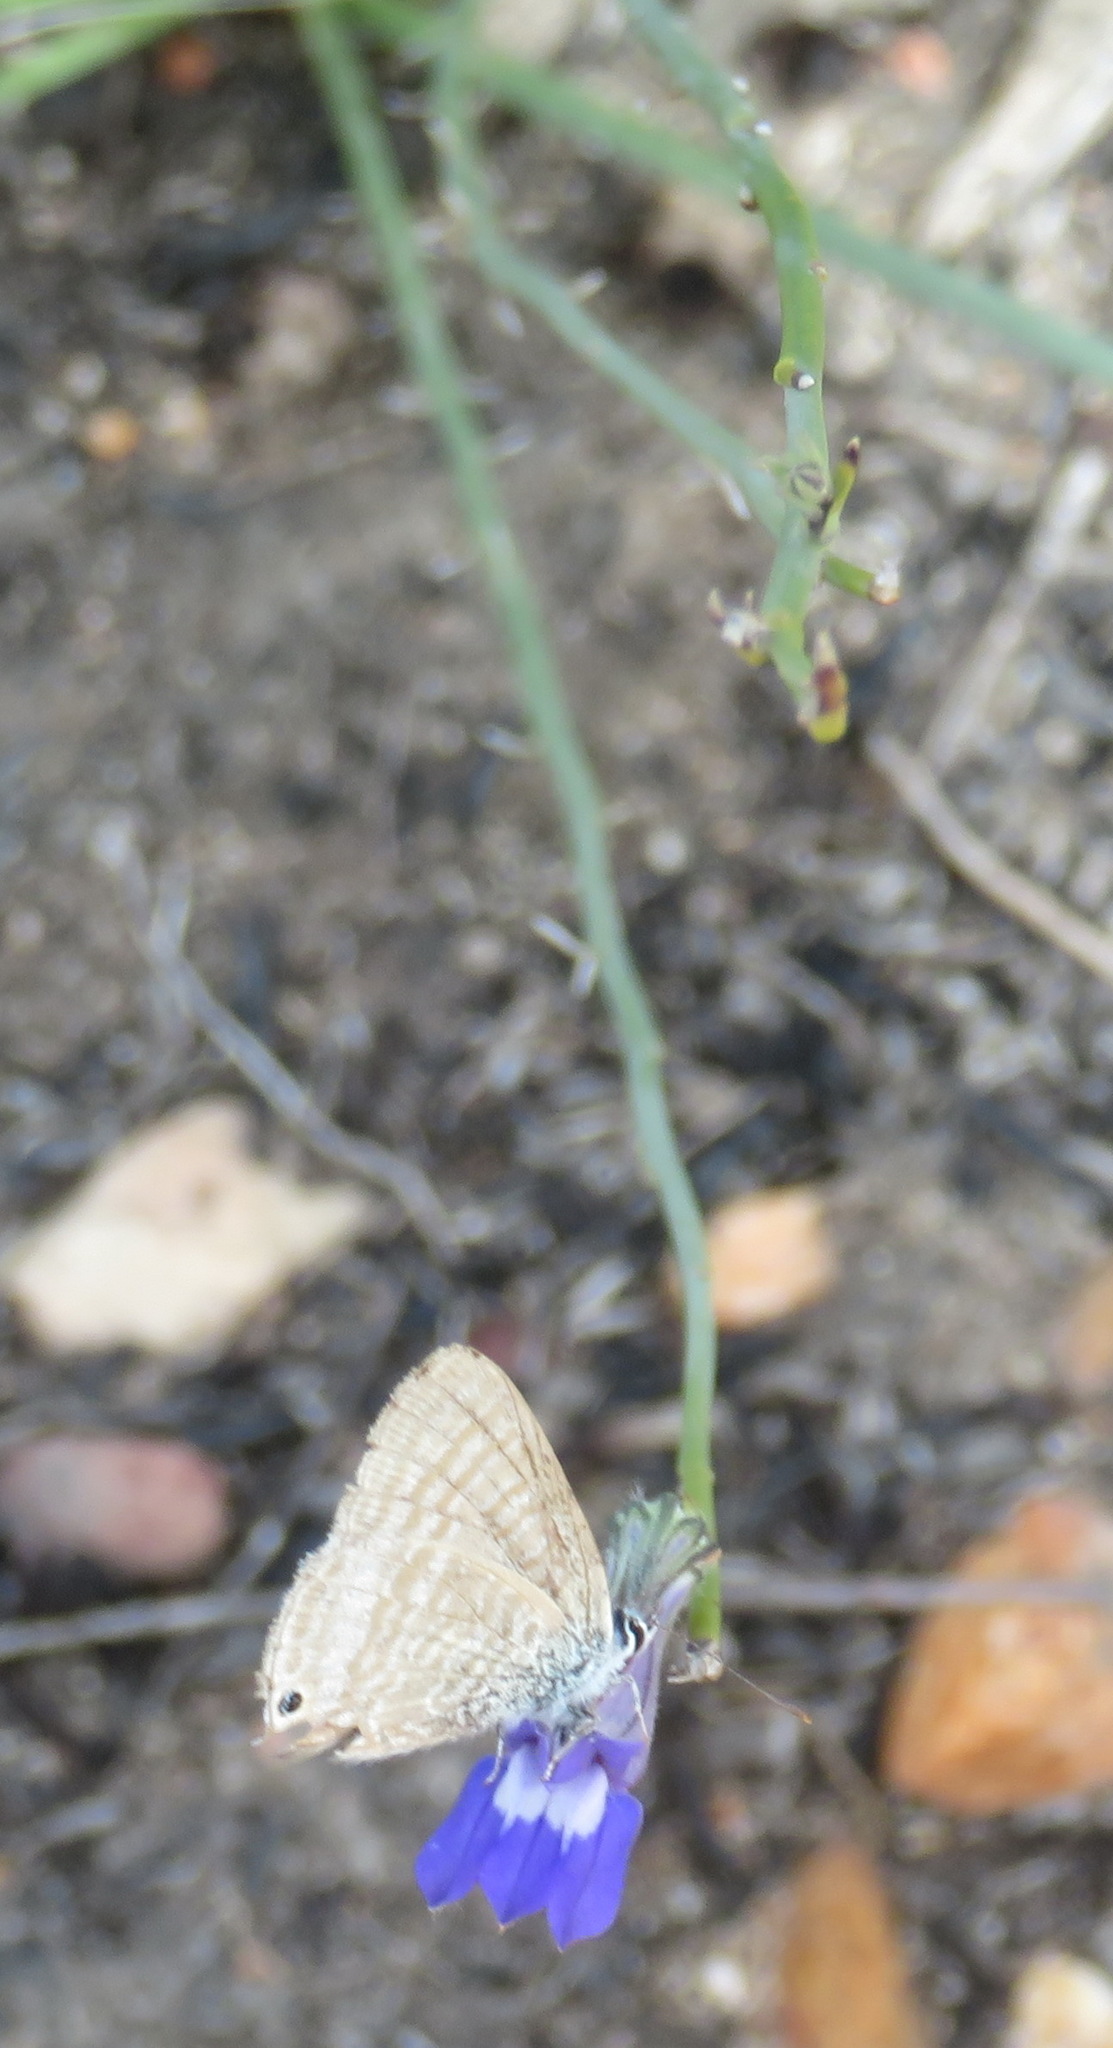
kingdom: Plantae
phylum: Tracheophyta
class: Magnoliopsida
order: Asterales
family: Campanulaceae
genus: Lobelia
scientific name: Lobelia linearis
